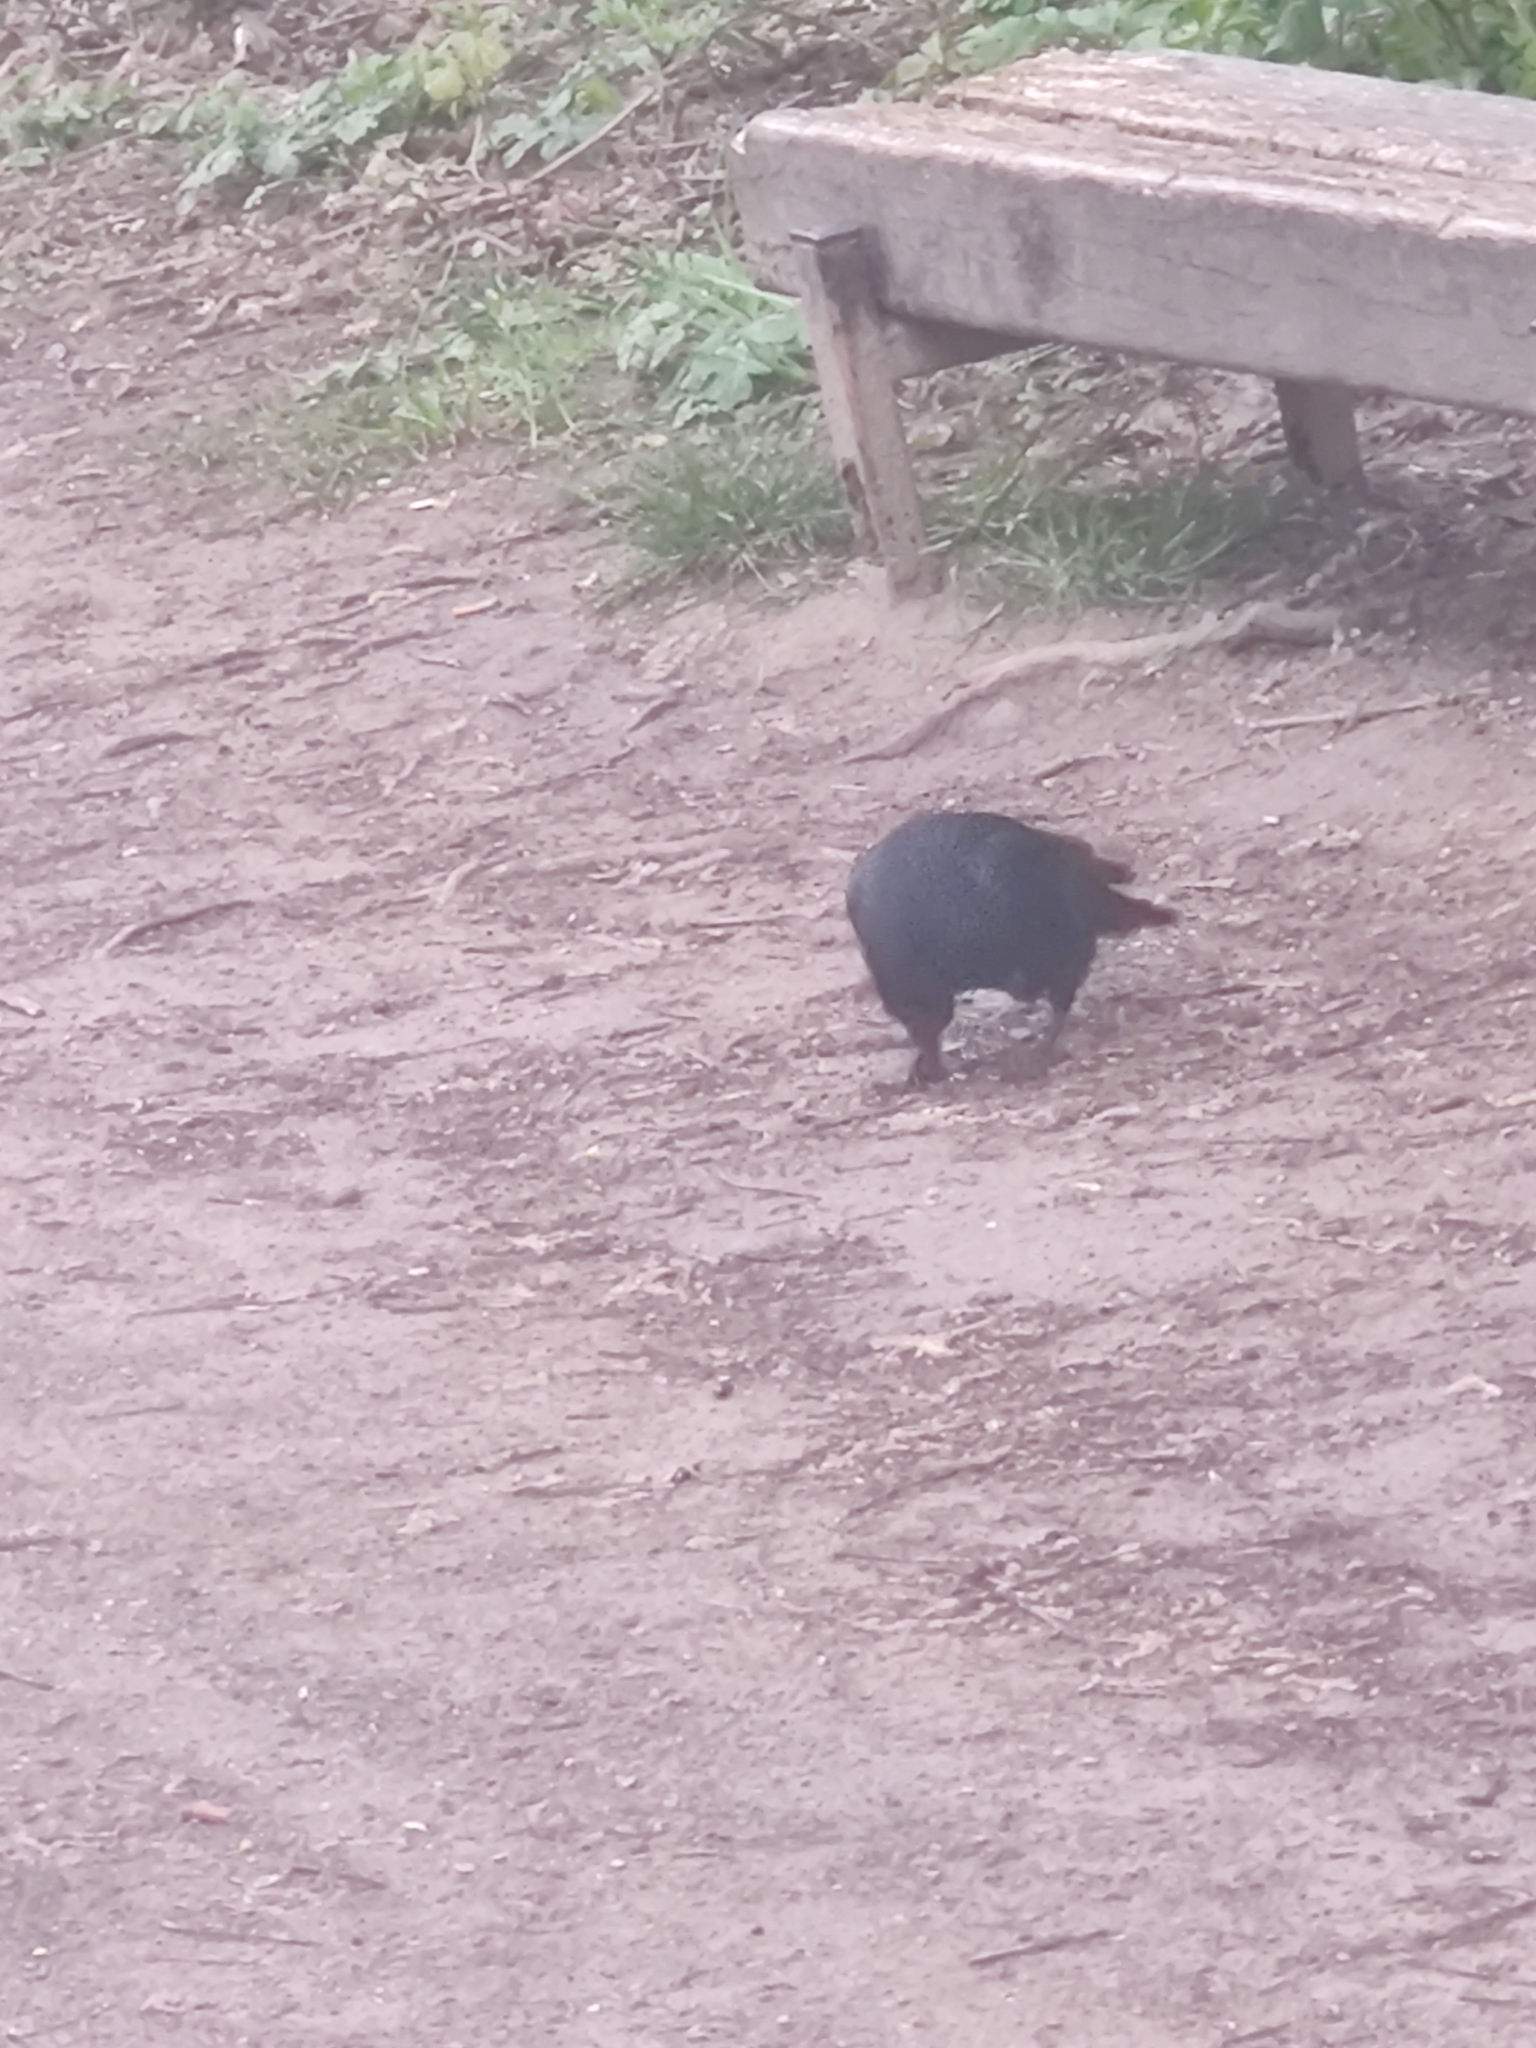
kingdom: Animalia
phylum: Chordata
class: Aves
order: Passeriformes
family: Corvidae
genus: Corvus
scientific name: Corvus corone
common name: Carrion crow
